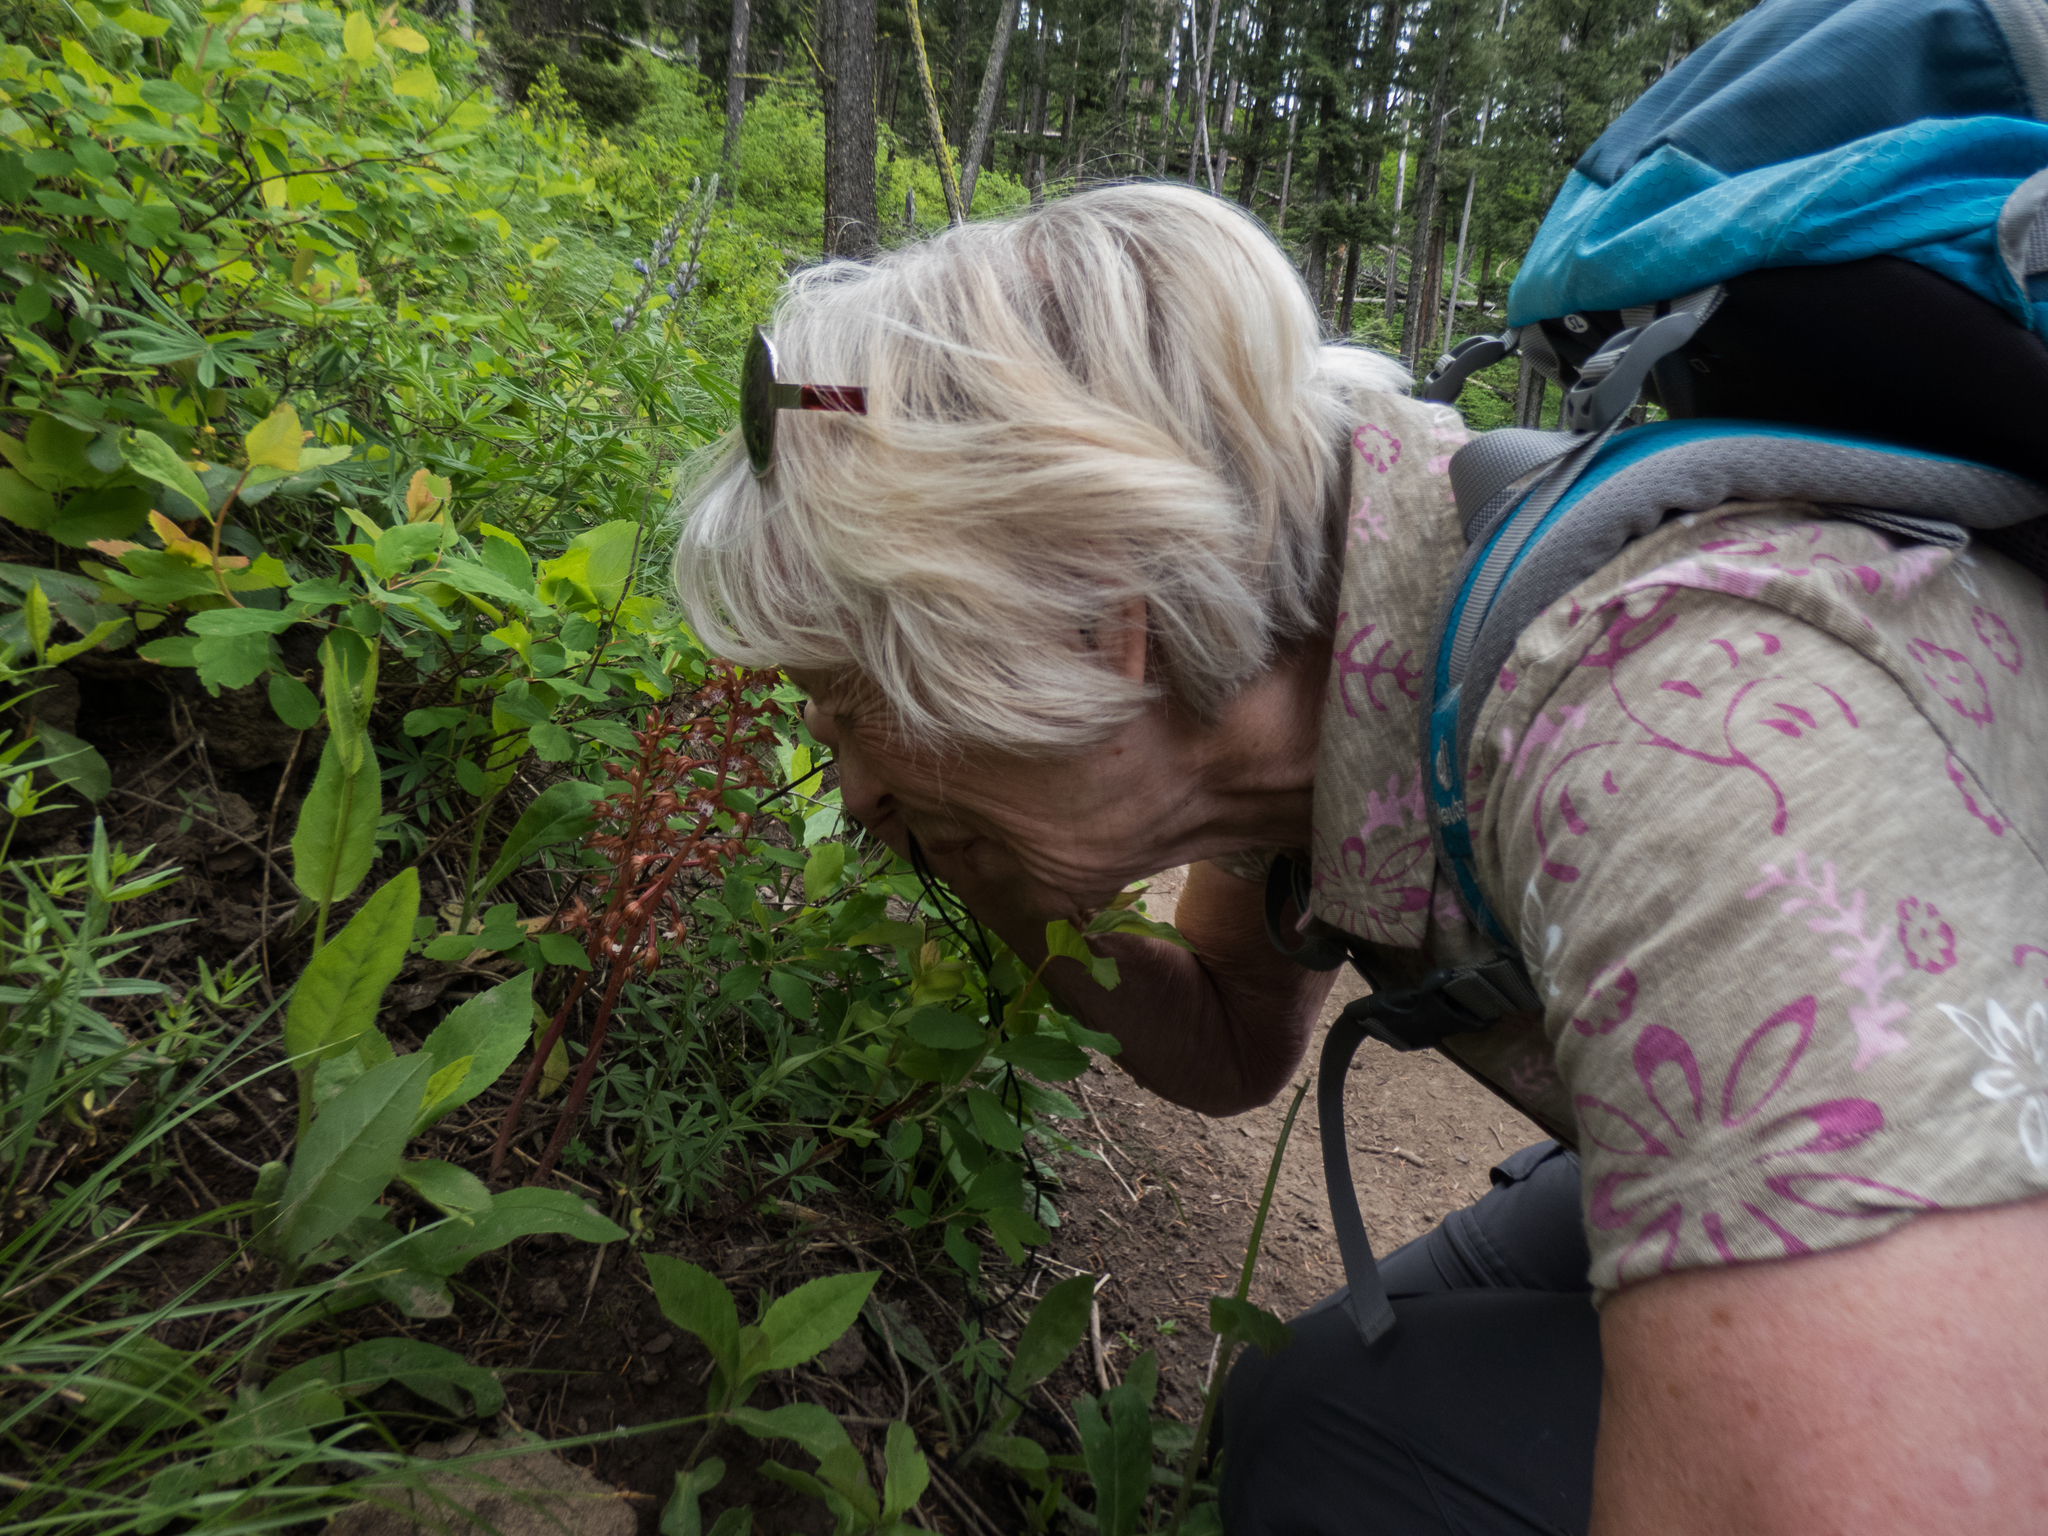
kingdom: Plantae
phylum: Tracheophyta
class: Liliopsida
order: Asparagales
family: Orchidaceae
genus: Corallorhiza
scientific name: Corallorhiza maculata
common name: Spotted coralroot
